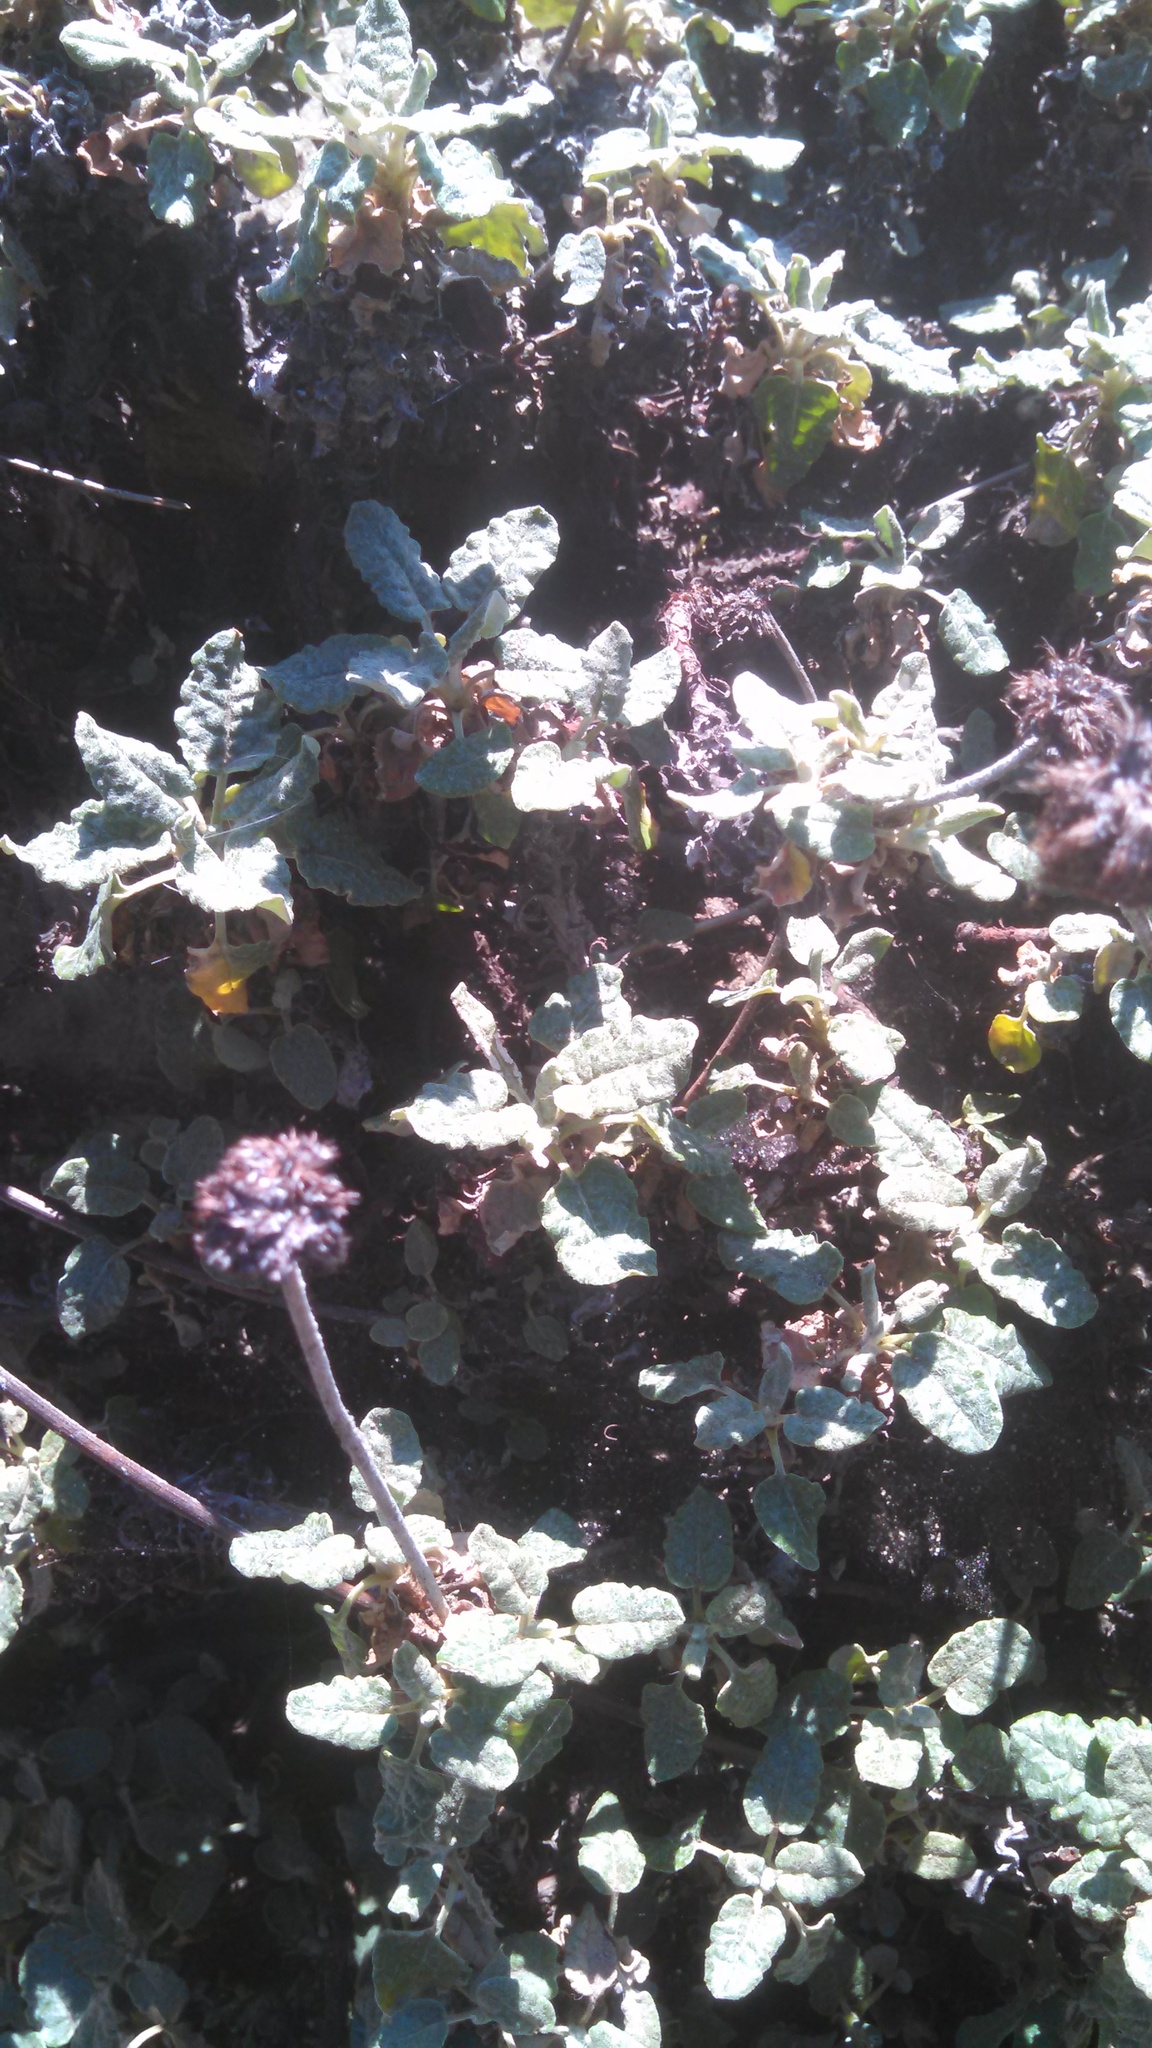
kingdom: Plantae
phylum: Tracheophyta
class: Magnoliopsida
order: Caryophyllales
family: Polygonaceae
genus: Eriogonum
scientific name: Eriogonum latifolium
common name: Seaside wild buckwheat
